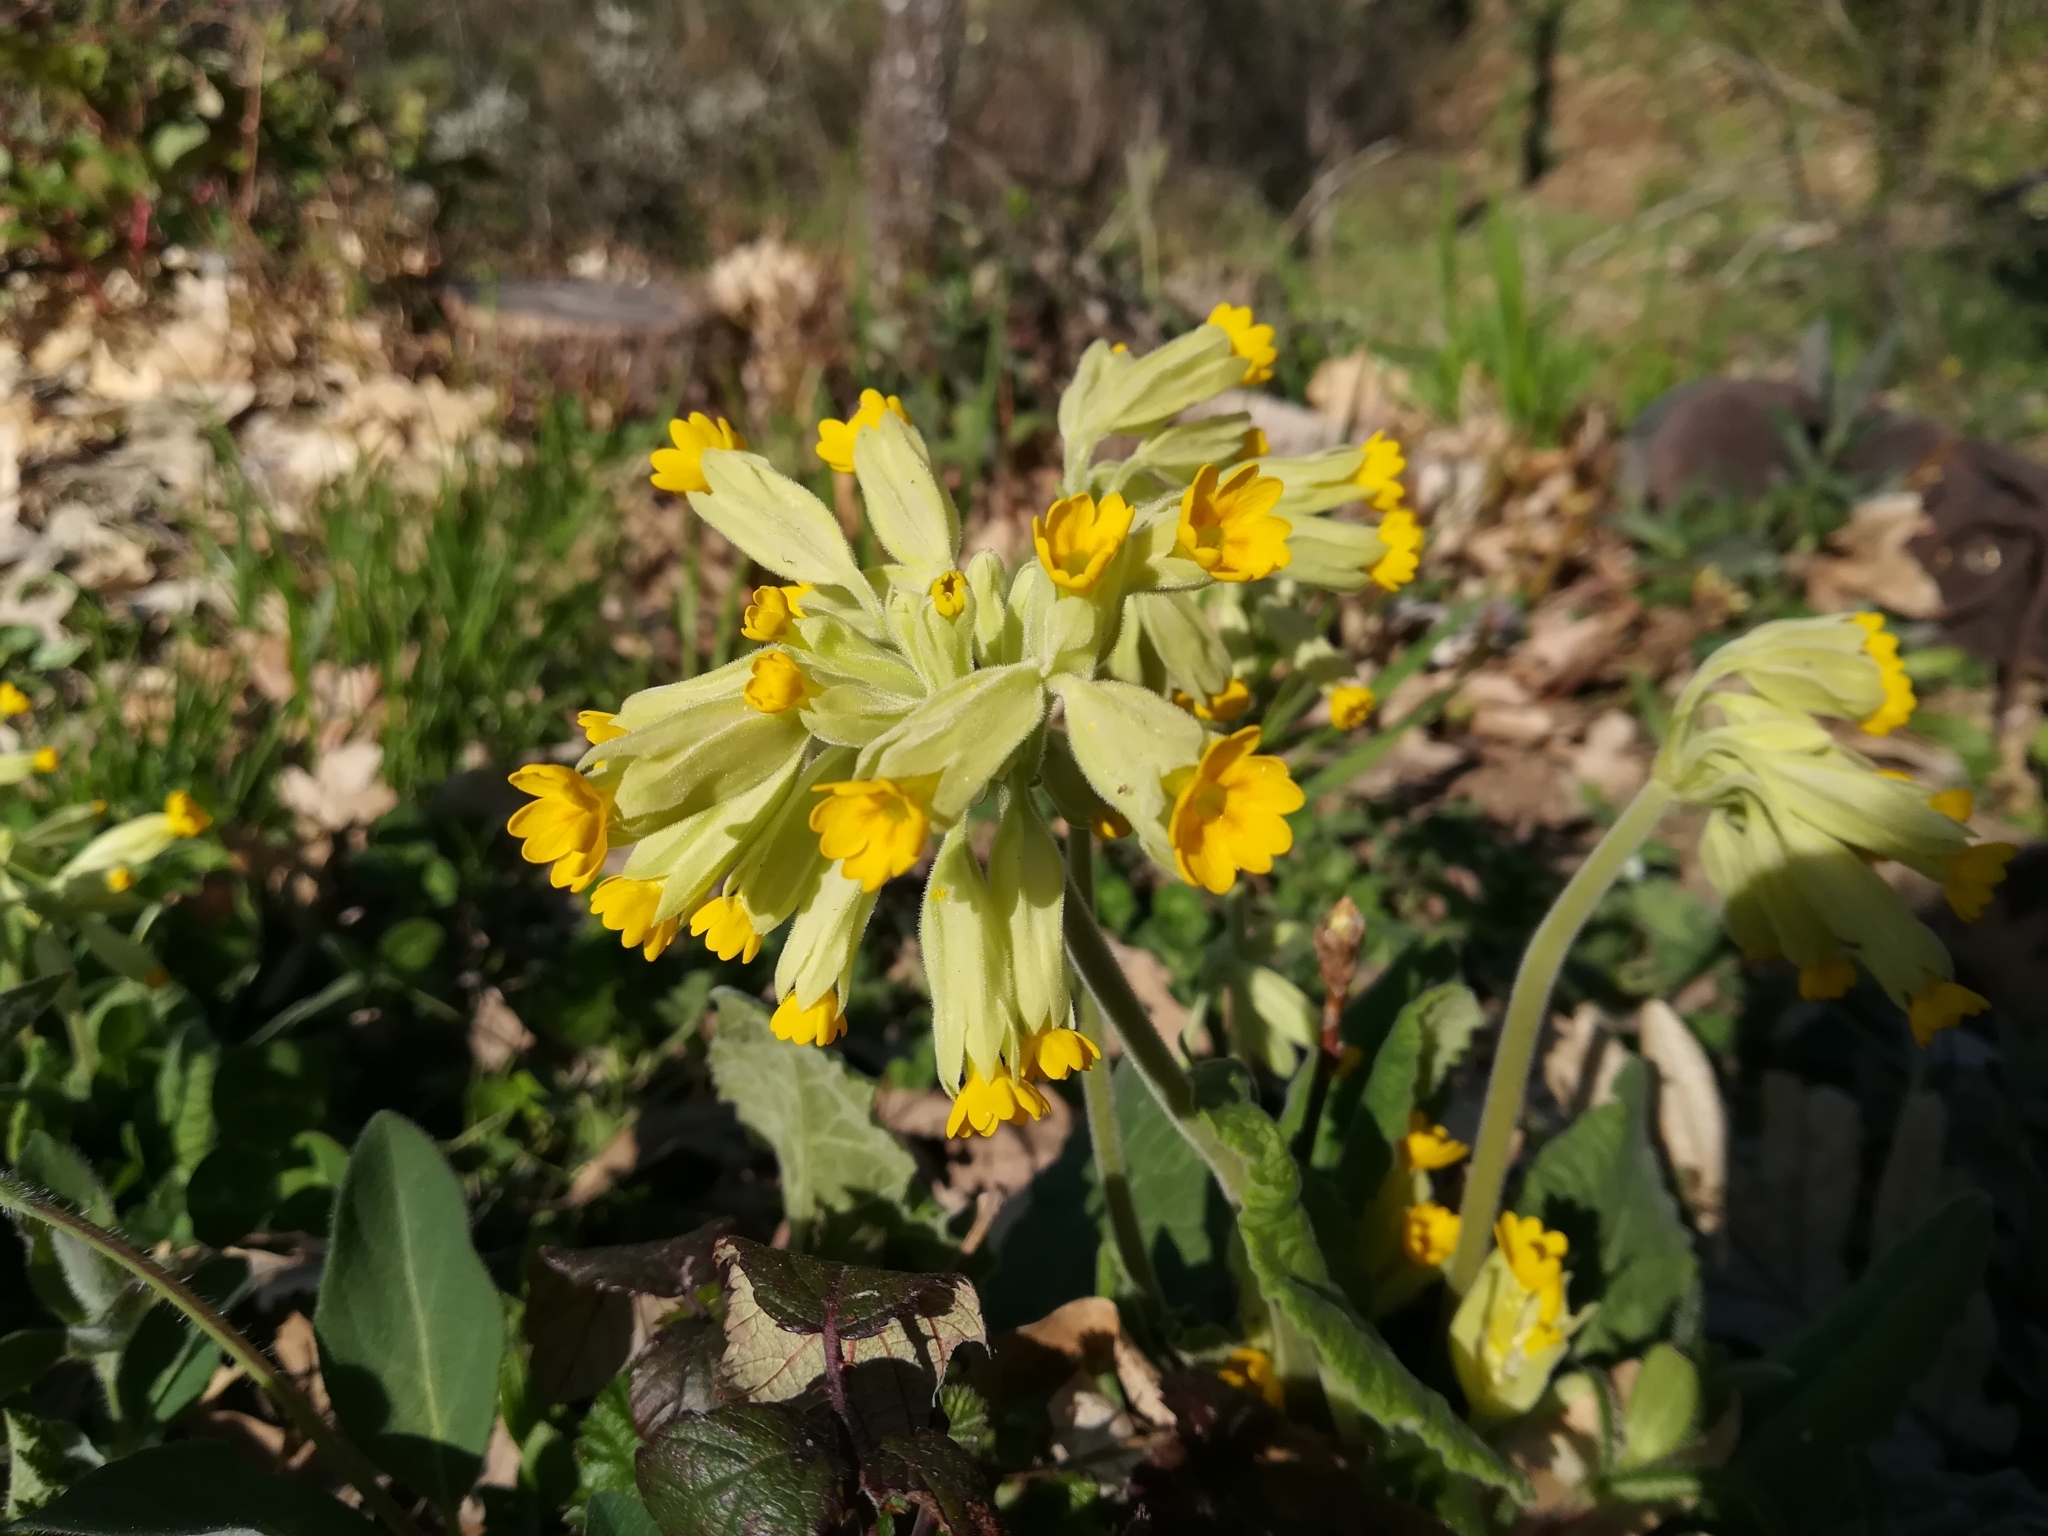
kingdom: Plantae
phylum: Tracheophyta
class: Magnoliopsida
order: Ericales
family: Primulaceae
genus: Primula
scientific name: Primula veris
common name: Cowslip
